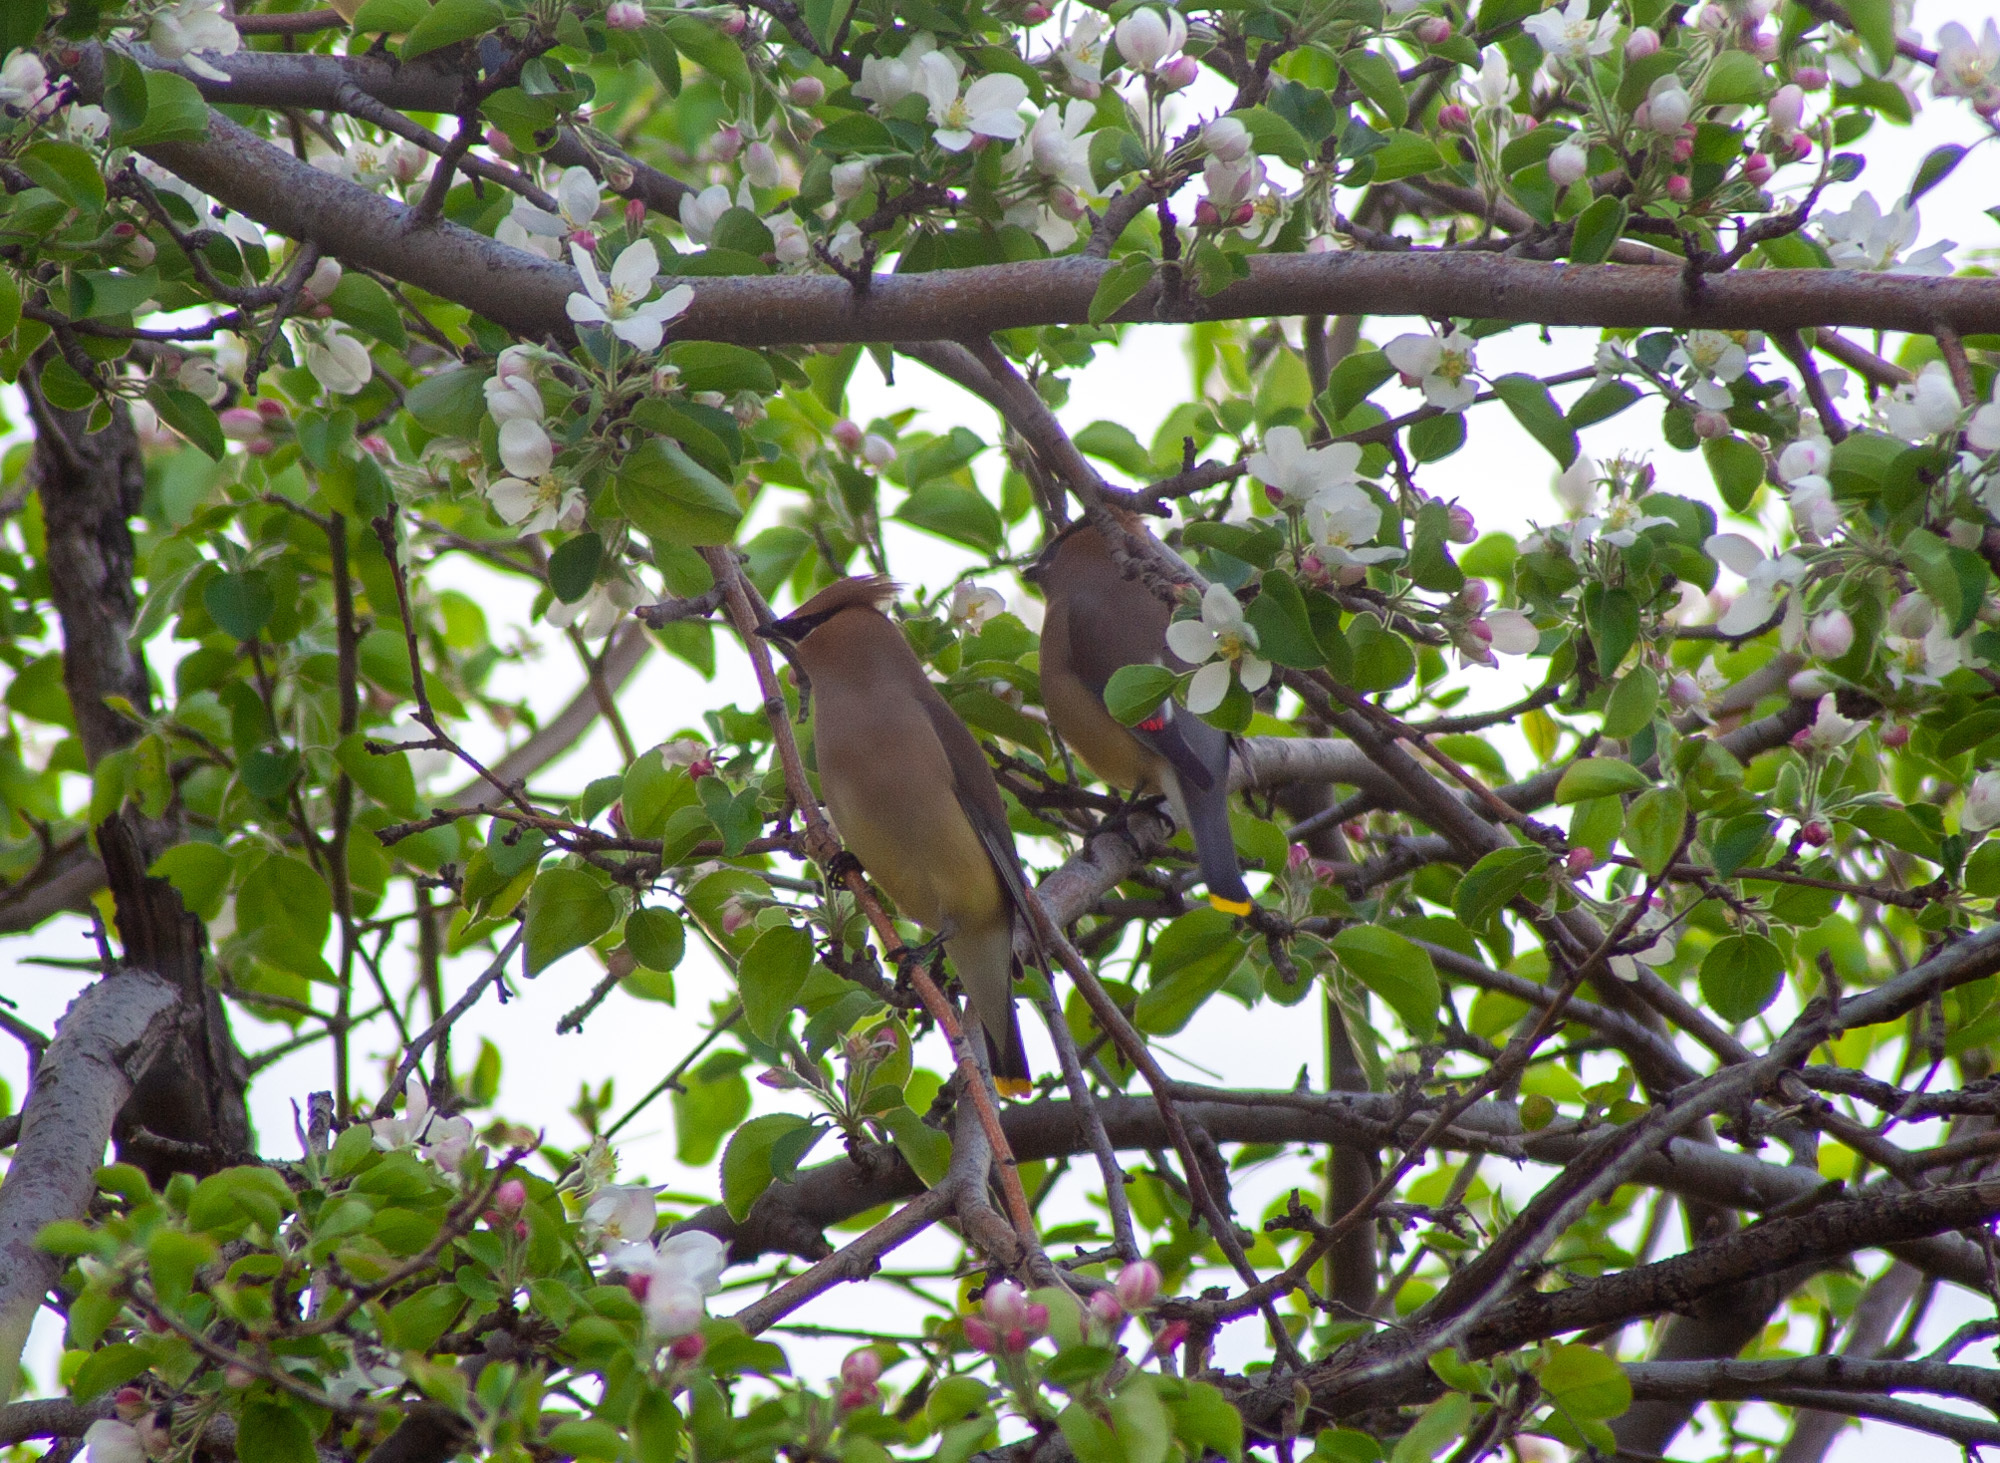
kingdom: Animalia
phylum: Chordata
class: Aves
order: Passeriformes
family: Bombycillidae
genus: Bombycilla
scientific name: Bombycilla cedrorum
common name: Cedar waxwing
